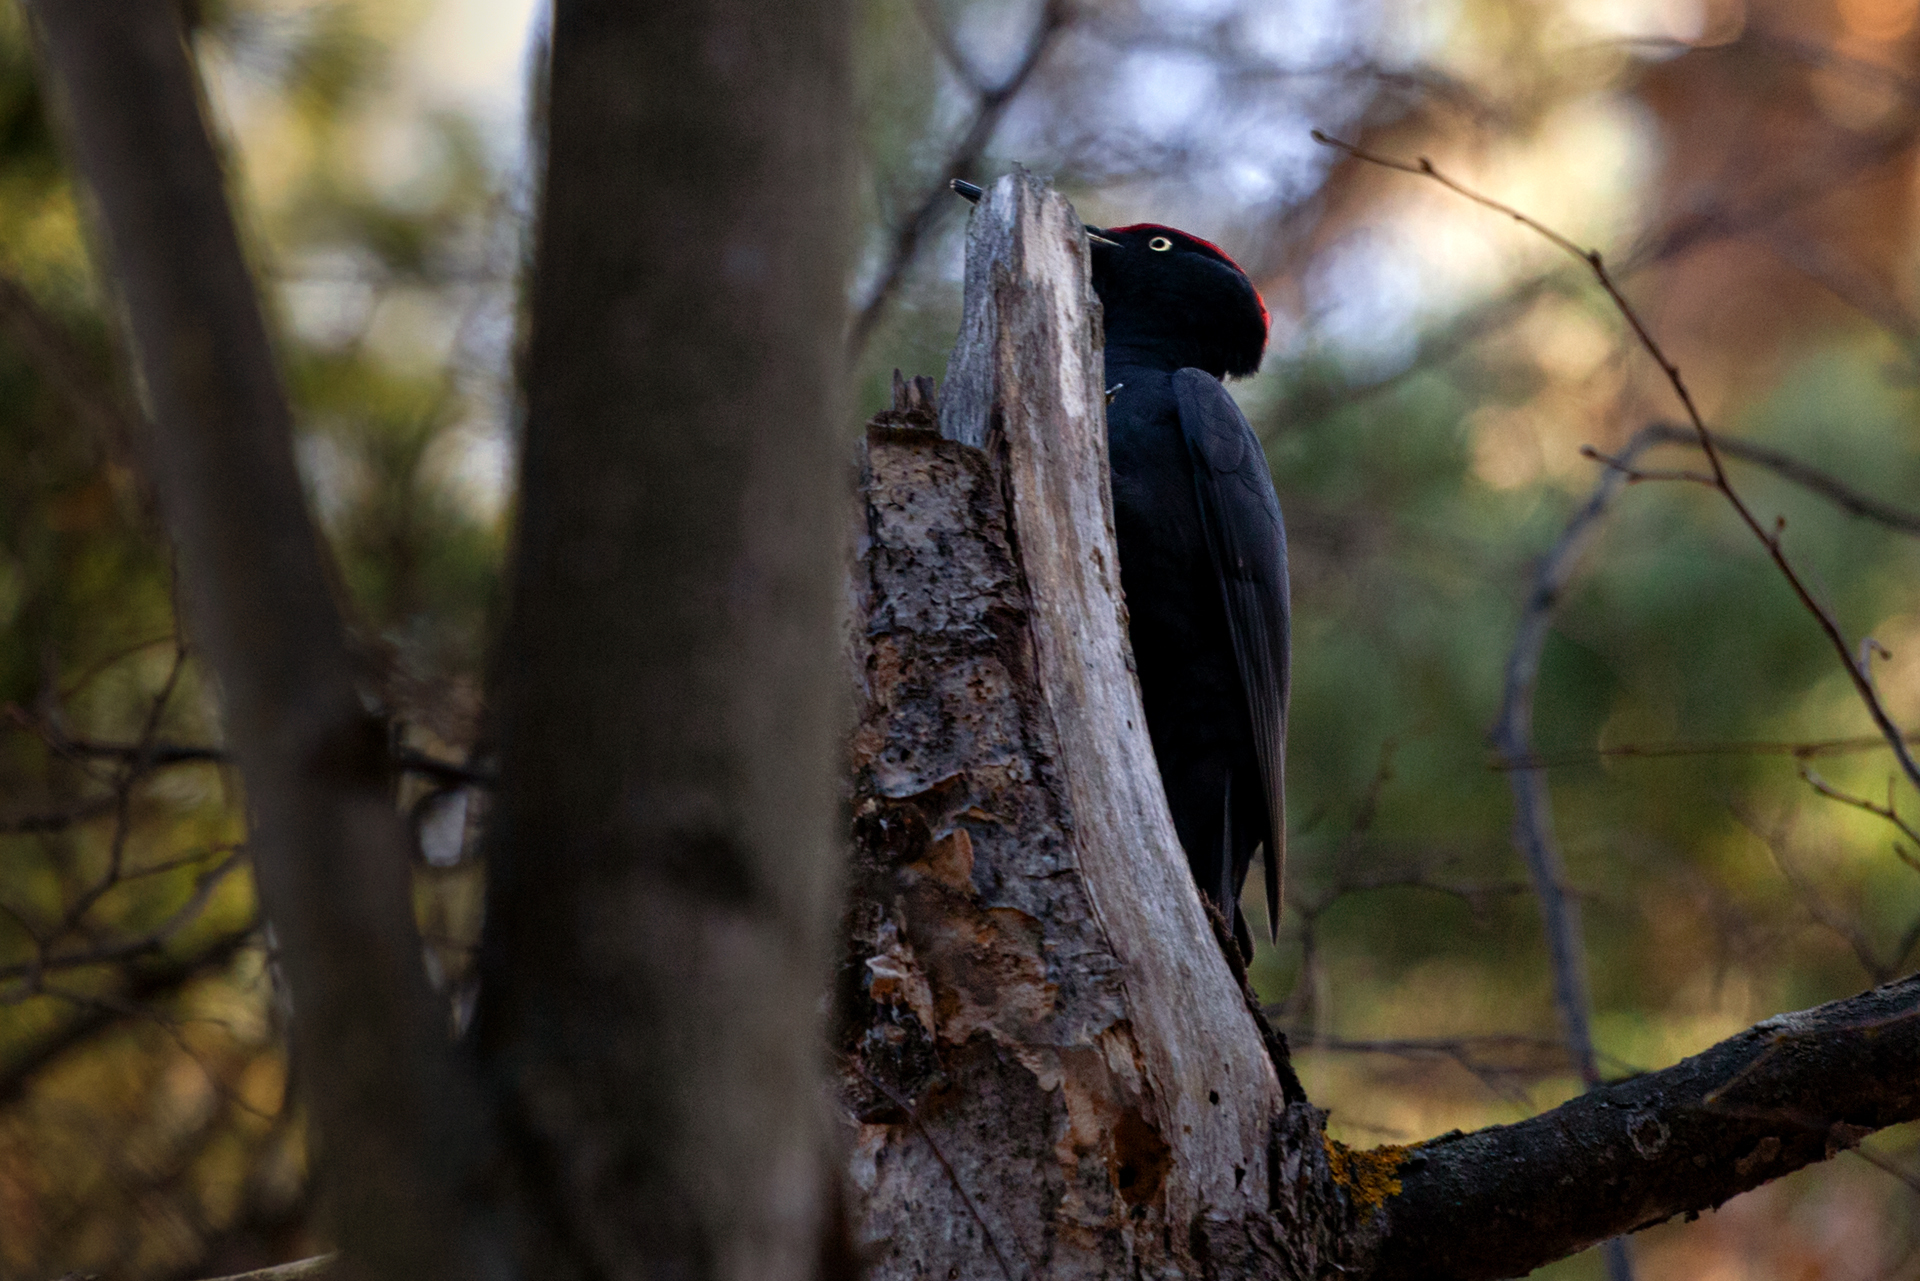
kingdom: Animalia
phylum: Chordata
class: Aves
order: Piciformes
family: Picidae
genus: Dryocopus
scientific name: Dryocopus martius
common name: Black woodpecker
